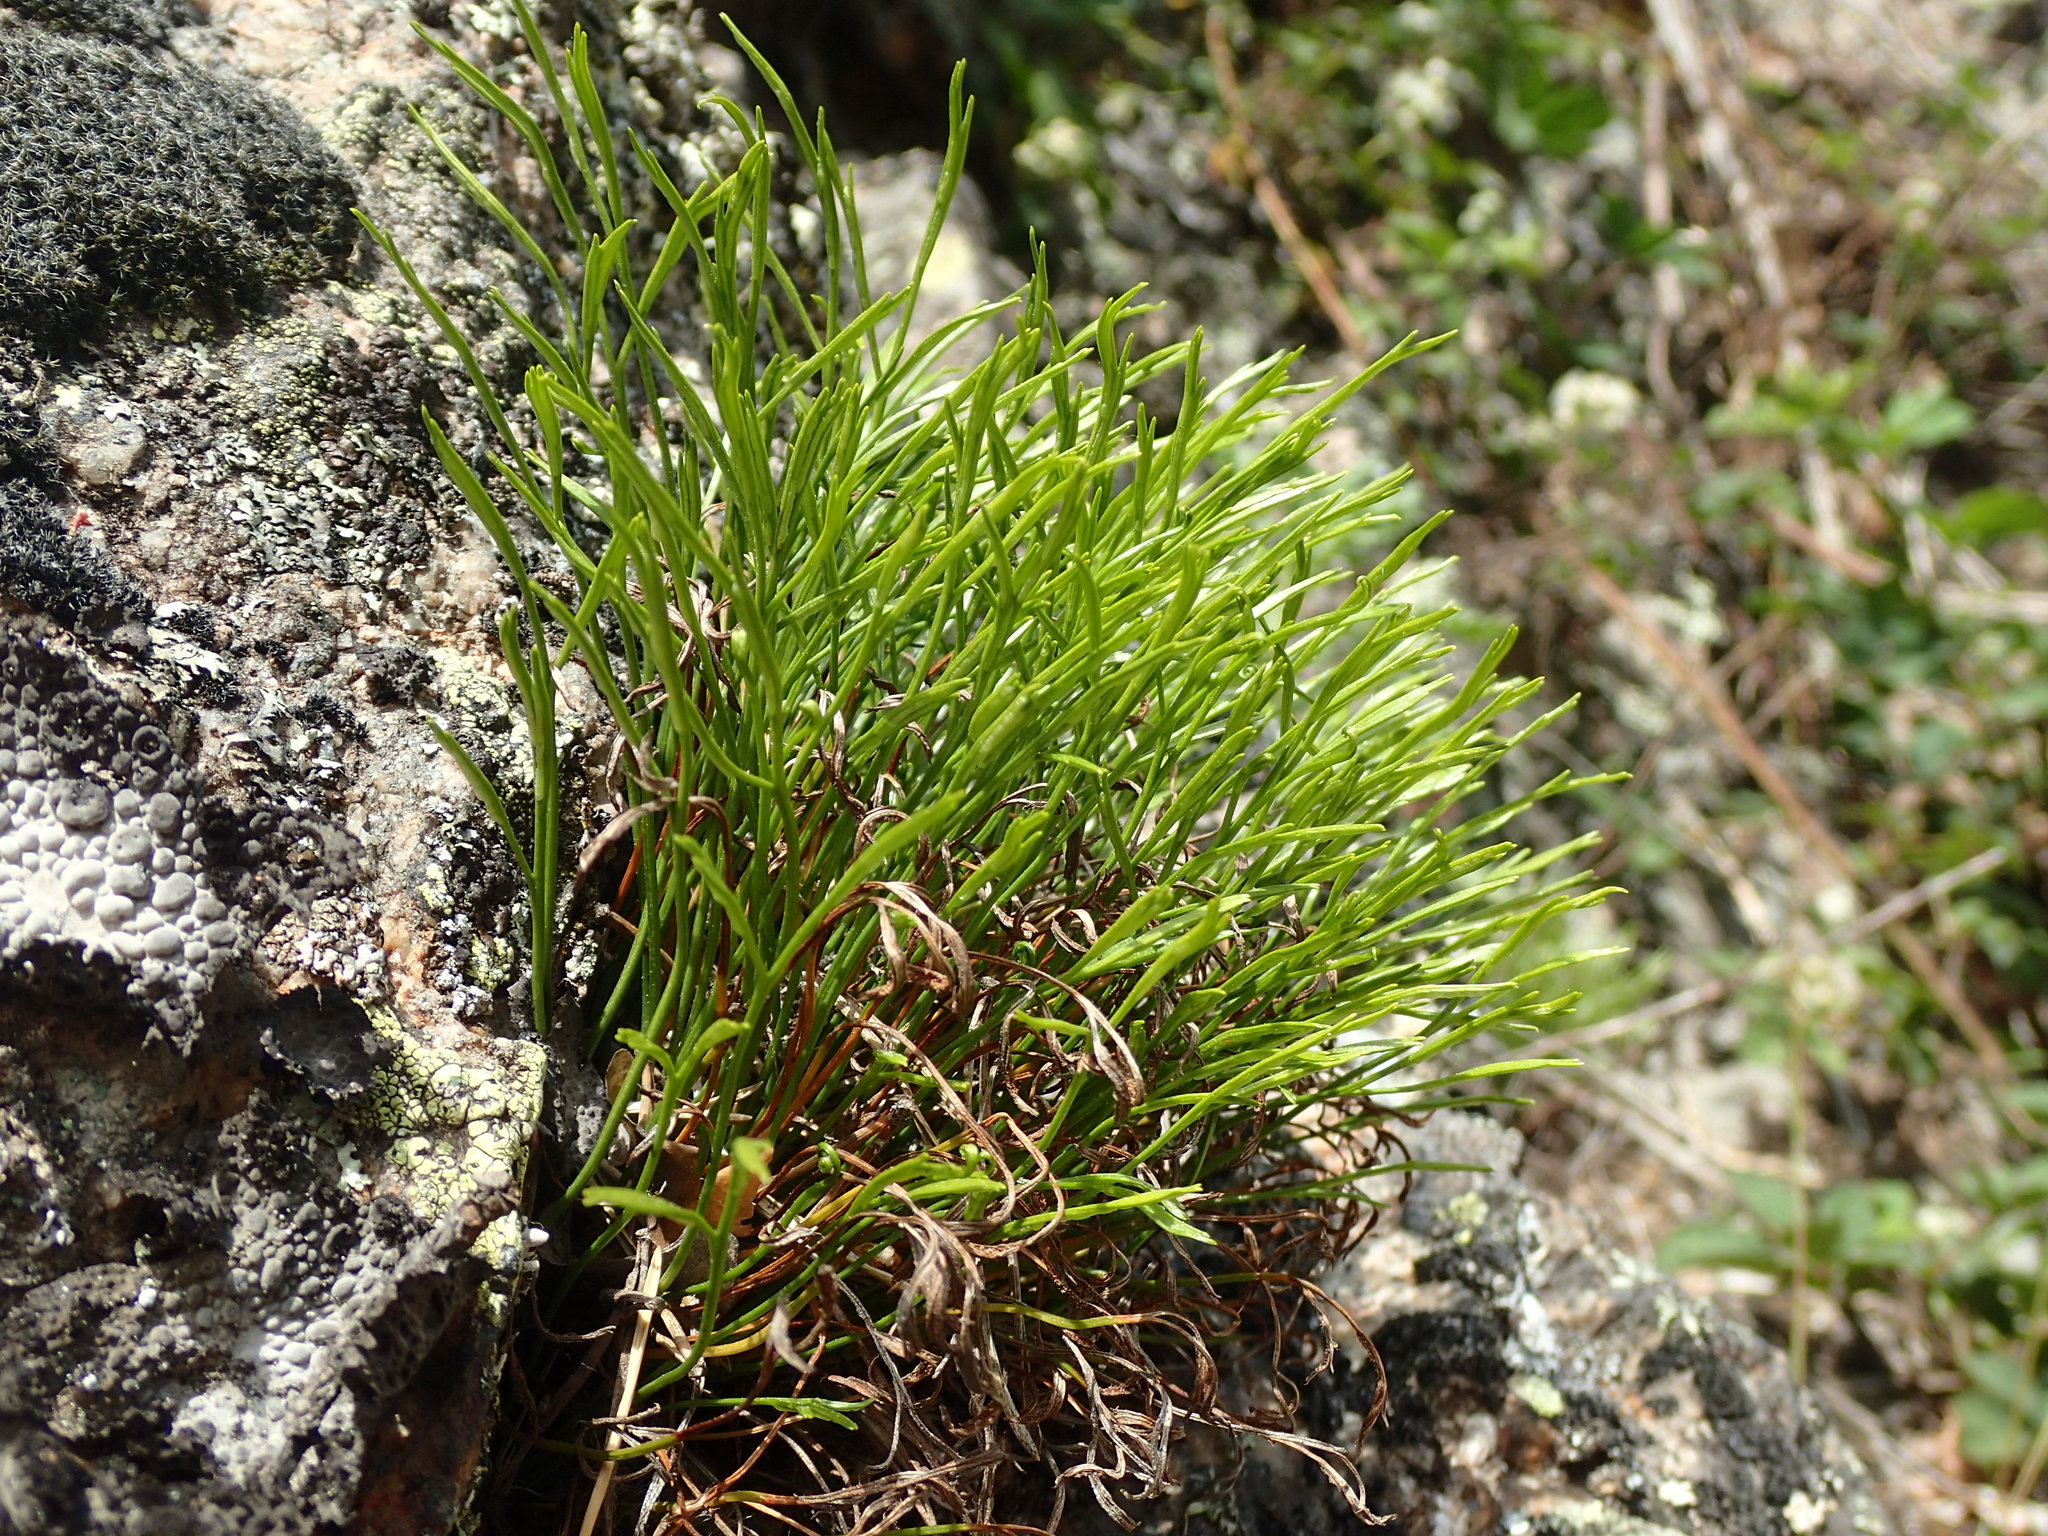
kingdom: Plantae
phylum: Tracheophyta
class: Polypodiopsida
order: Polypodiales
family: Aspleniaceae
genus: Asplenium
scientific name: Asplenium septentrionale
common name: Forked spleenwort
